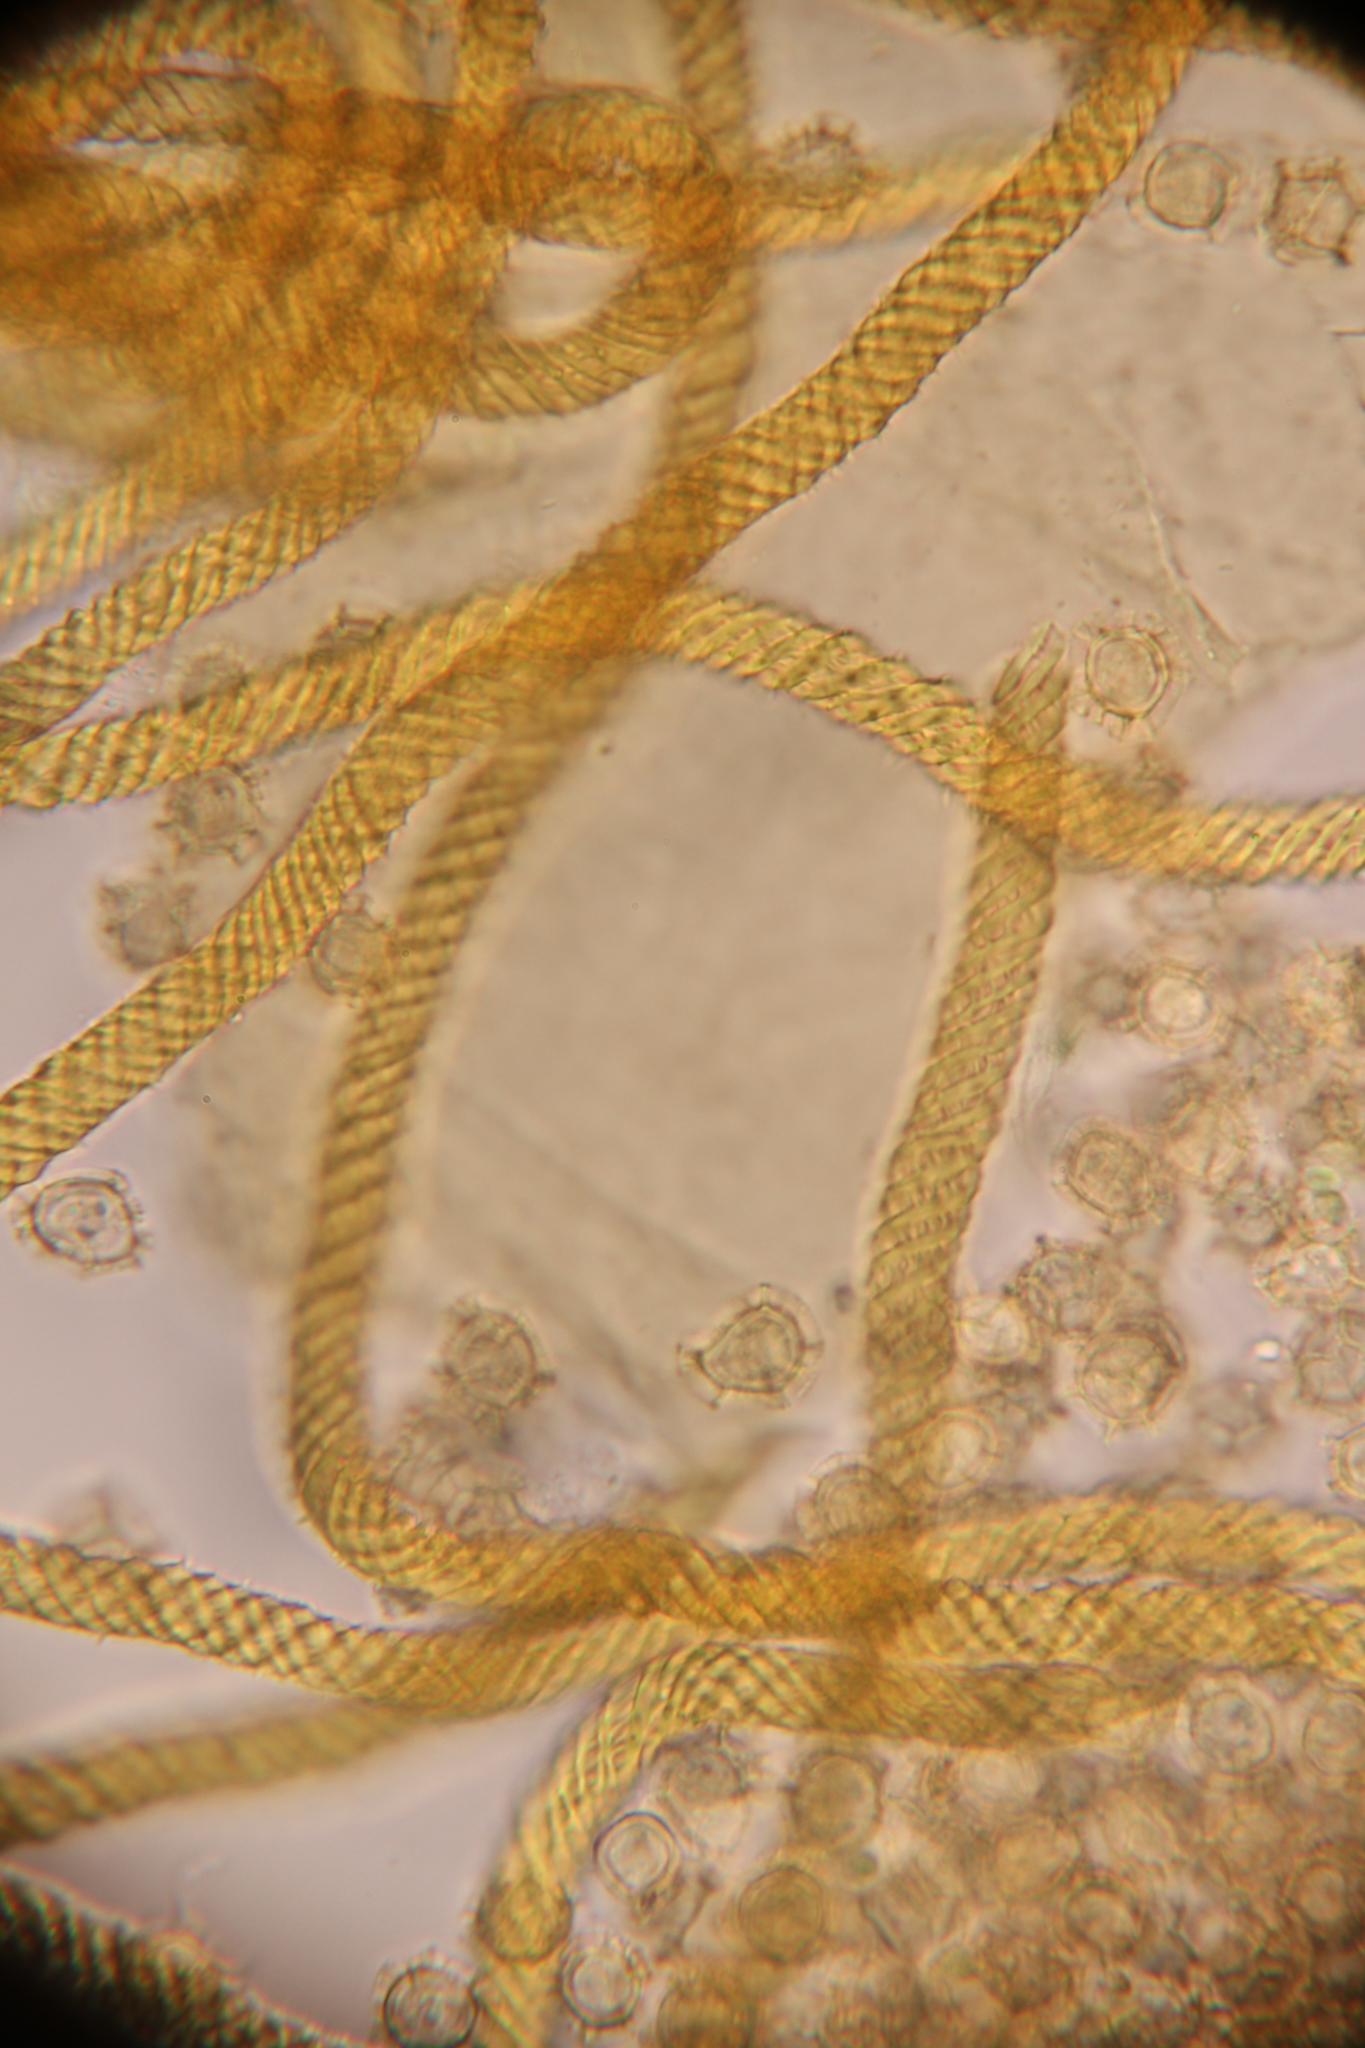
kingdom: Protozoa
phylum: Mycetozoa
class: Myxomycetes
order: Trichiales
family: Trichiaceae
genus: Oligonema
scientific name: Oligonema favogineum
